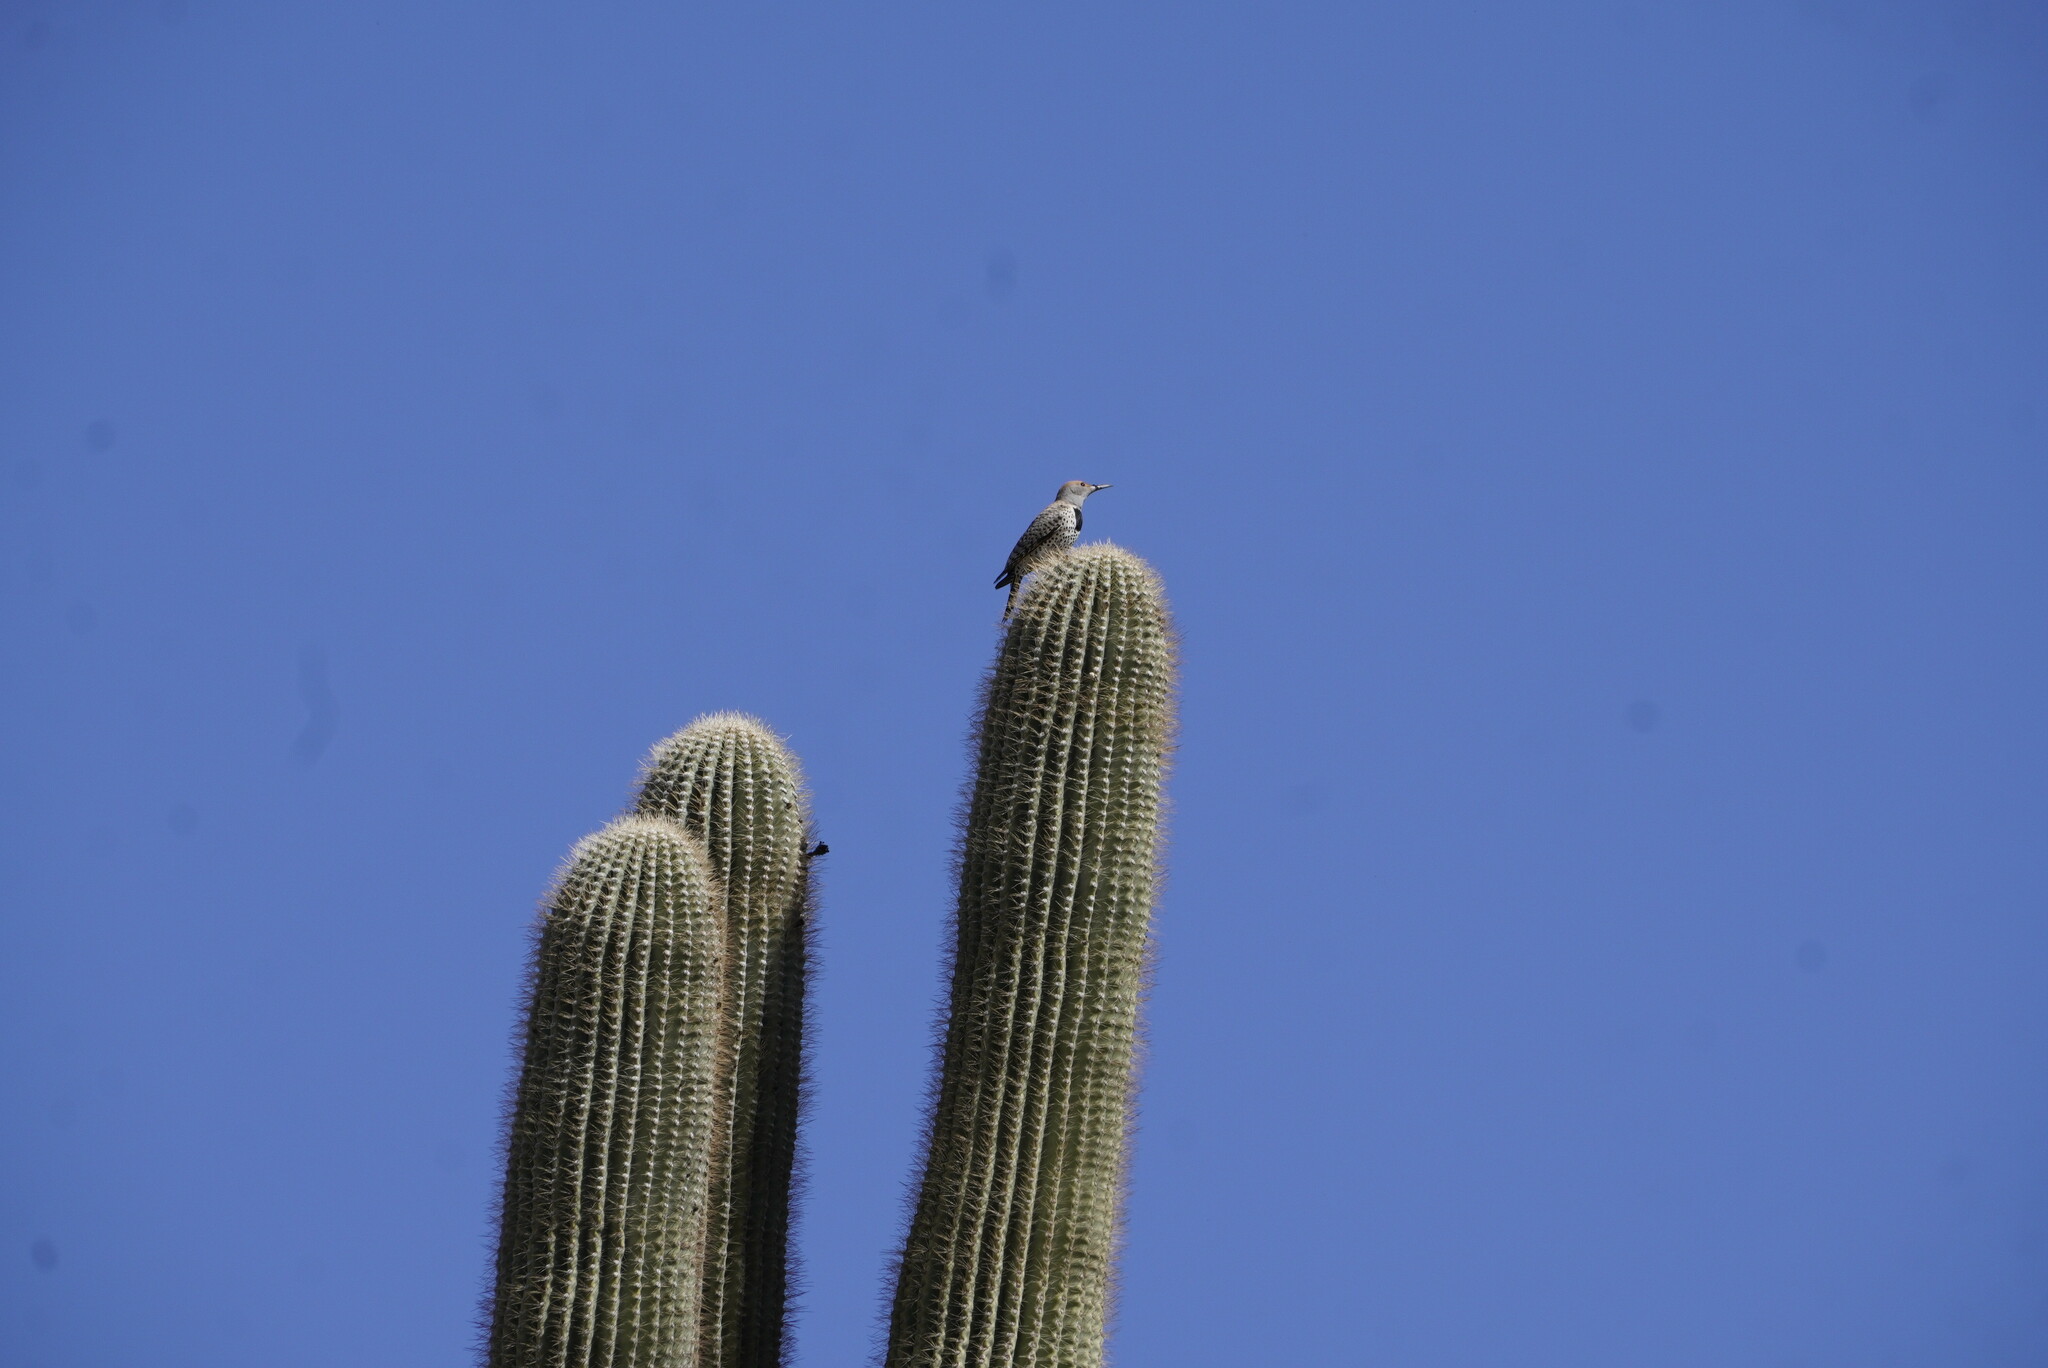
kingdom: Animalia
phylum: Chordata
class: Aves
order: Piciformes
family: Picidae
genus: Colaptes
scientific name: Colaptes chrysoides
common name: Gilded flicker
